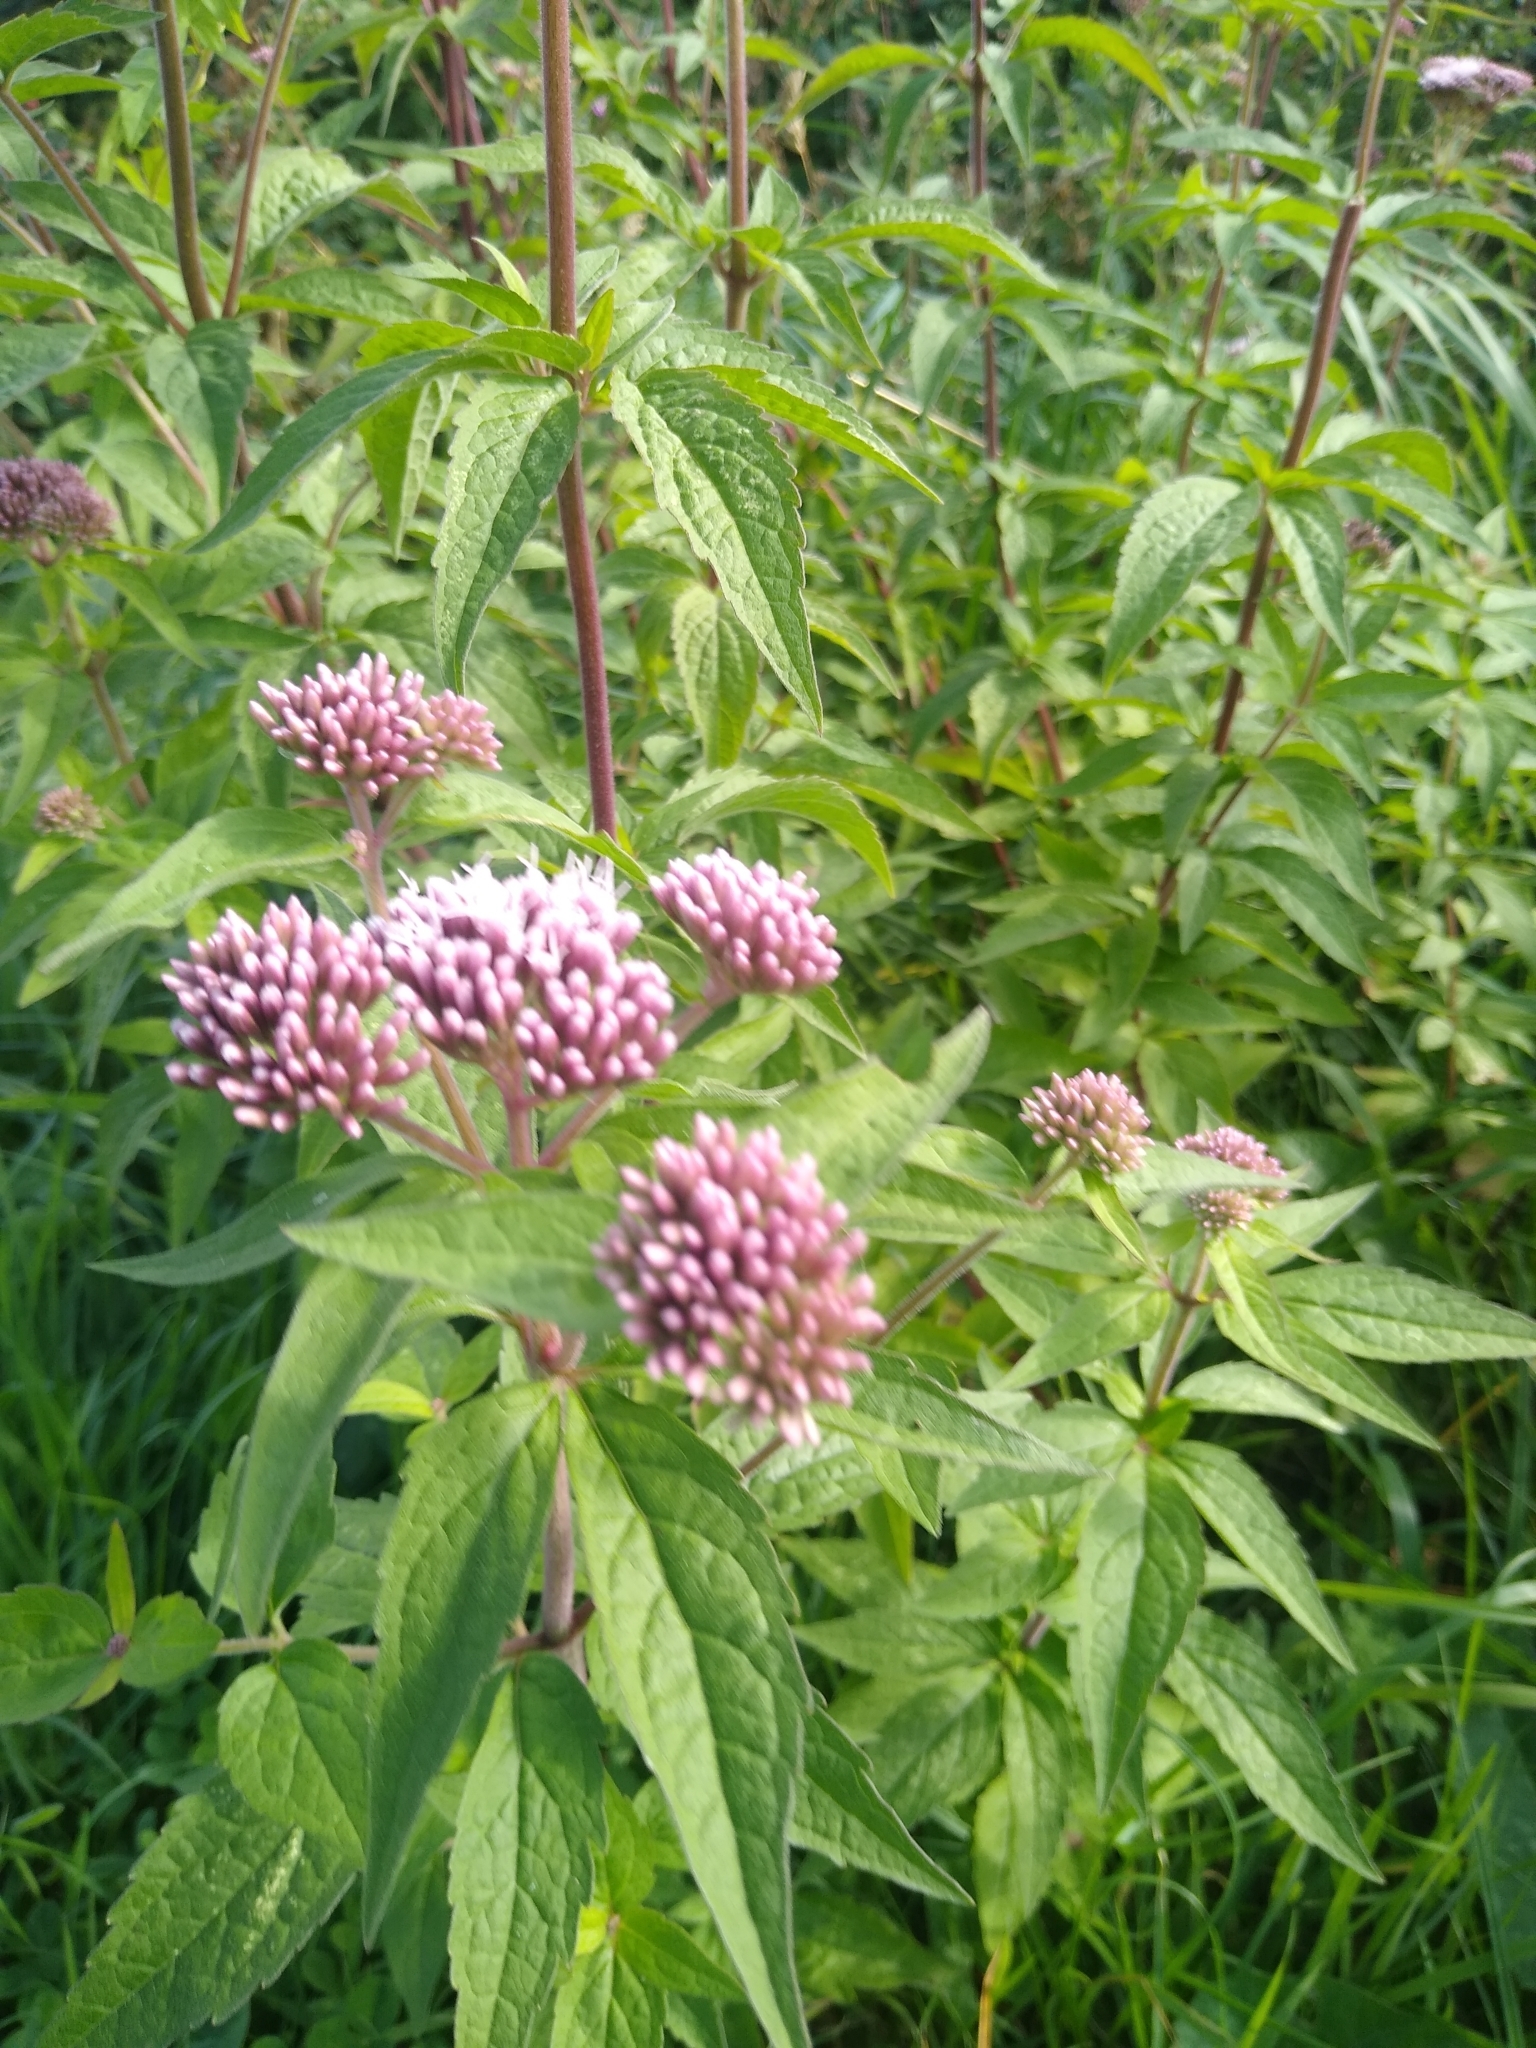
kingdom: Plantae
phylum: Tracheophyta
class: Magnoliopsida
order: Asterales
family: Asteraceae
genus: Eupatorium
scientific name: Eupatorium cannabinum
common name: Hemp-agrimony
